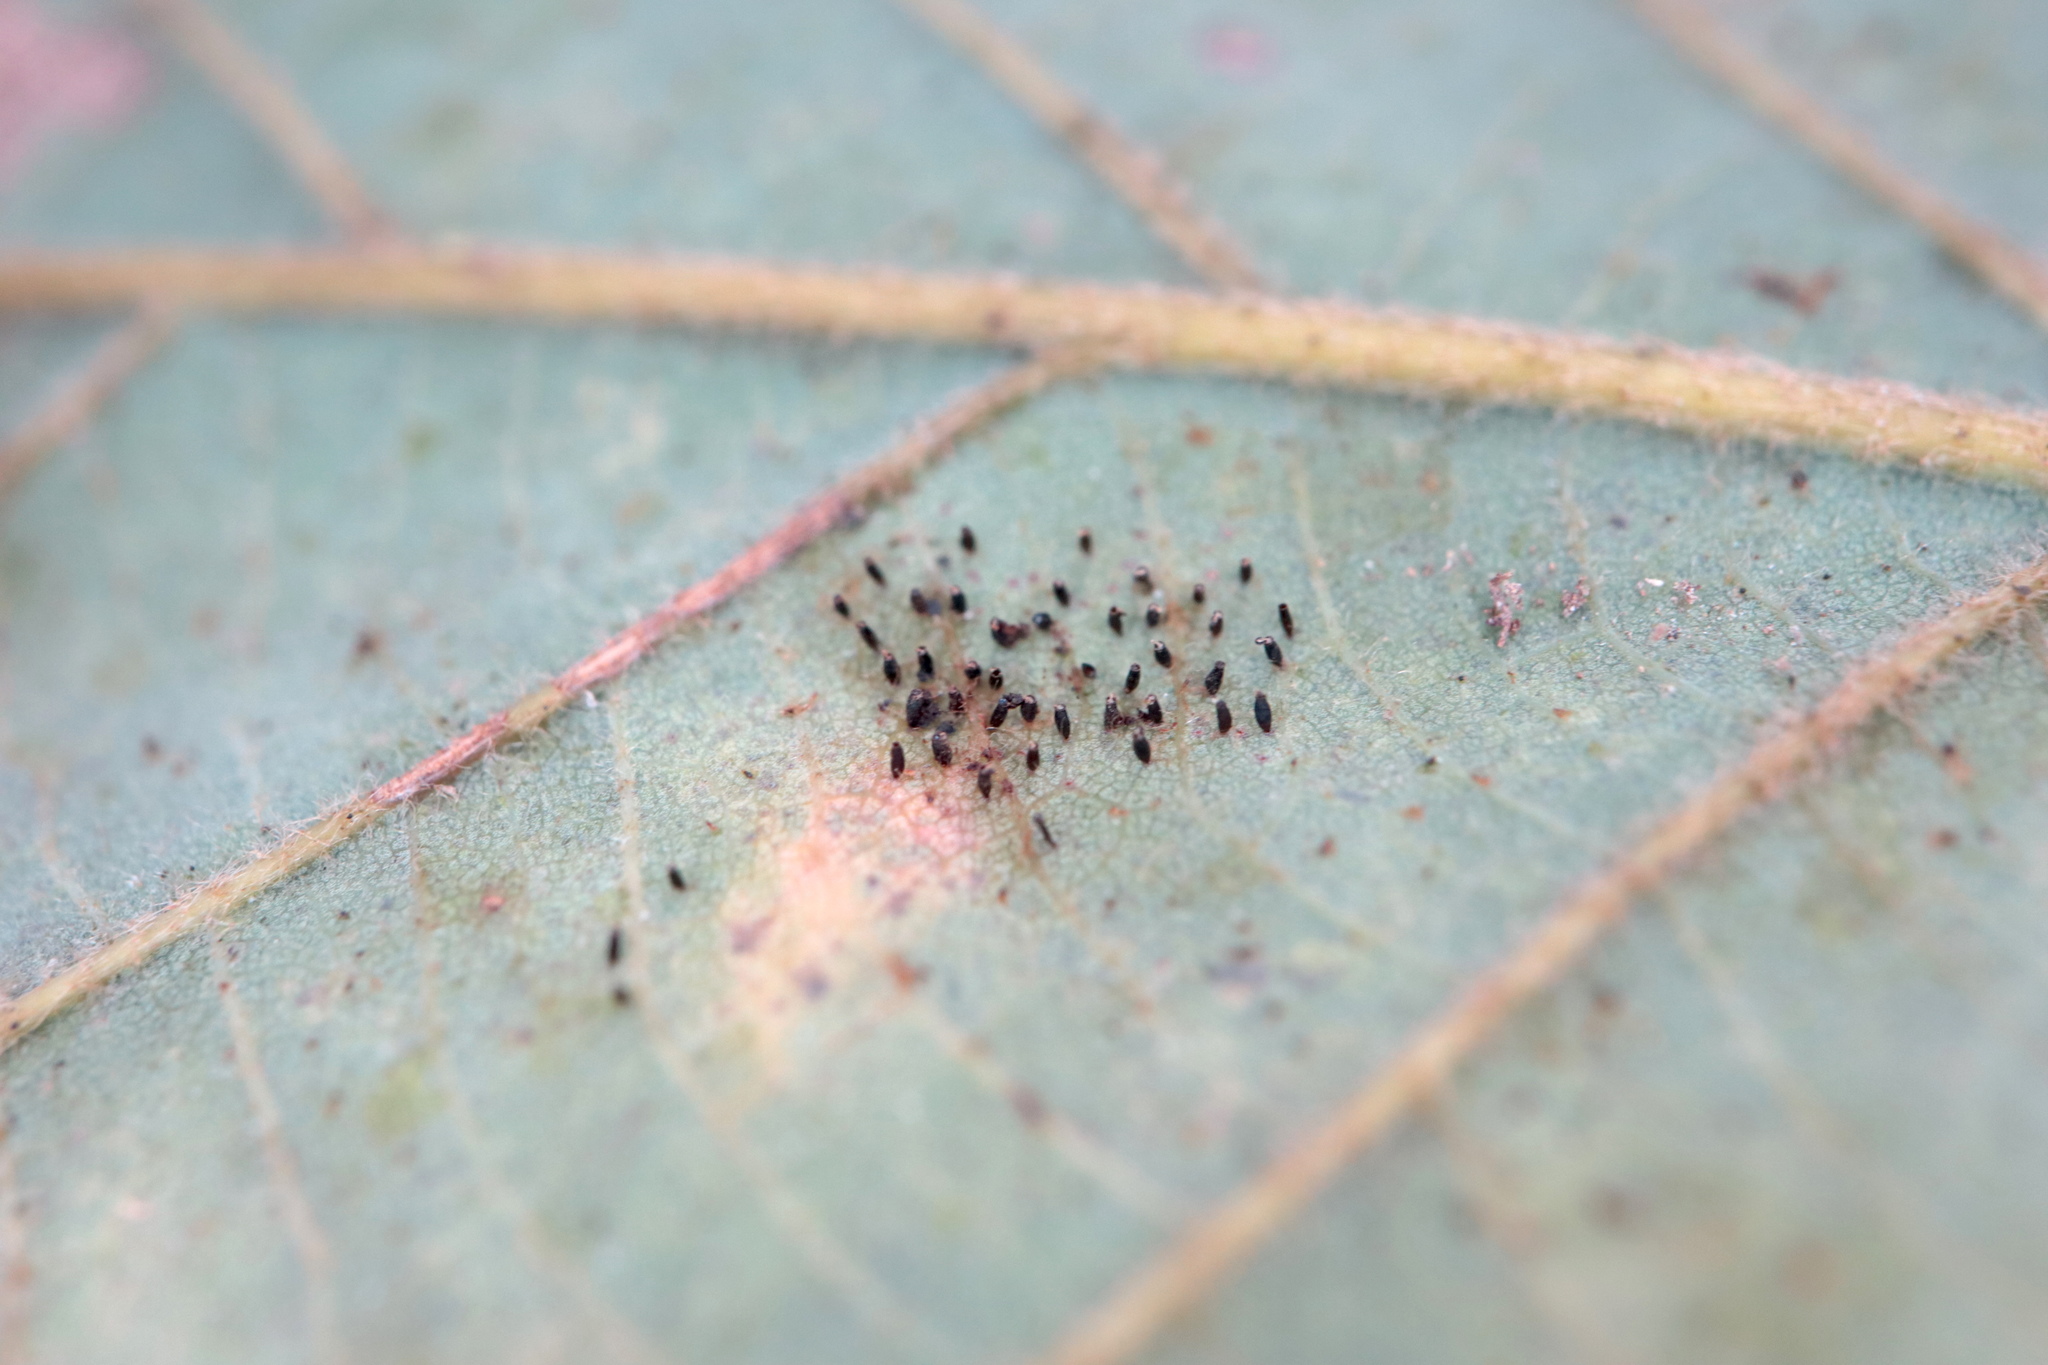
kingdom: Animalia
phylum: Arthropoda
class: Insecta
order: Hemiptera
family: Tingidae
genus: Corythucha
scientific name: Corythucha arcuata
